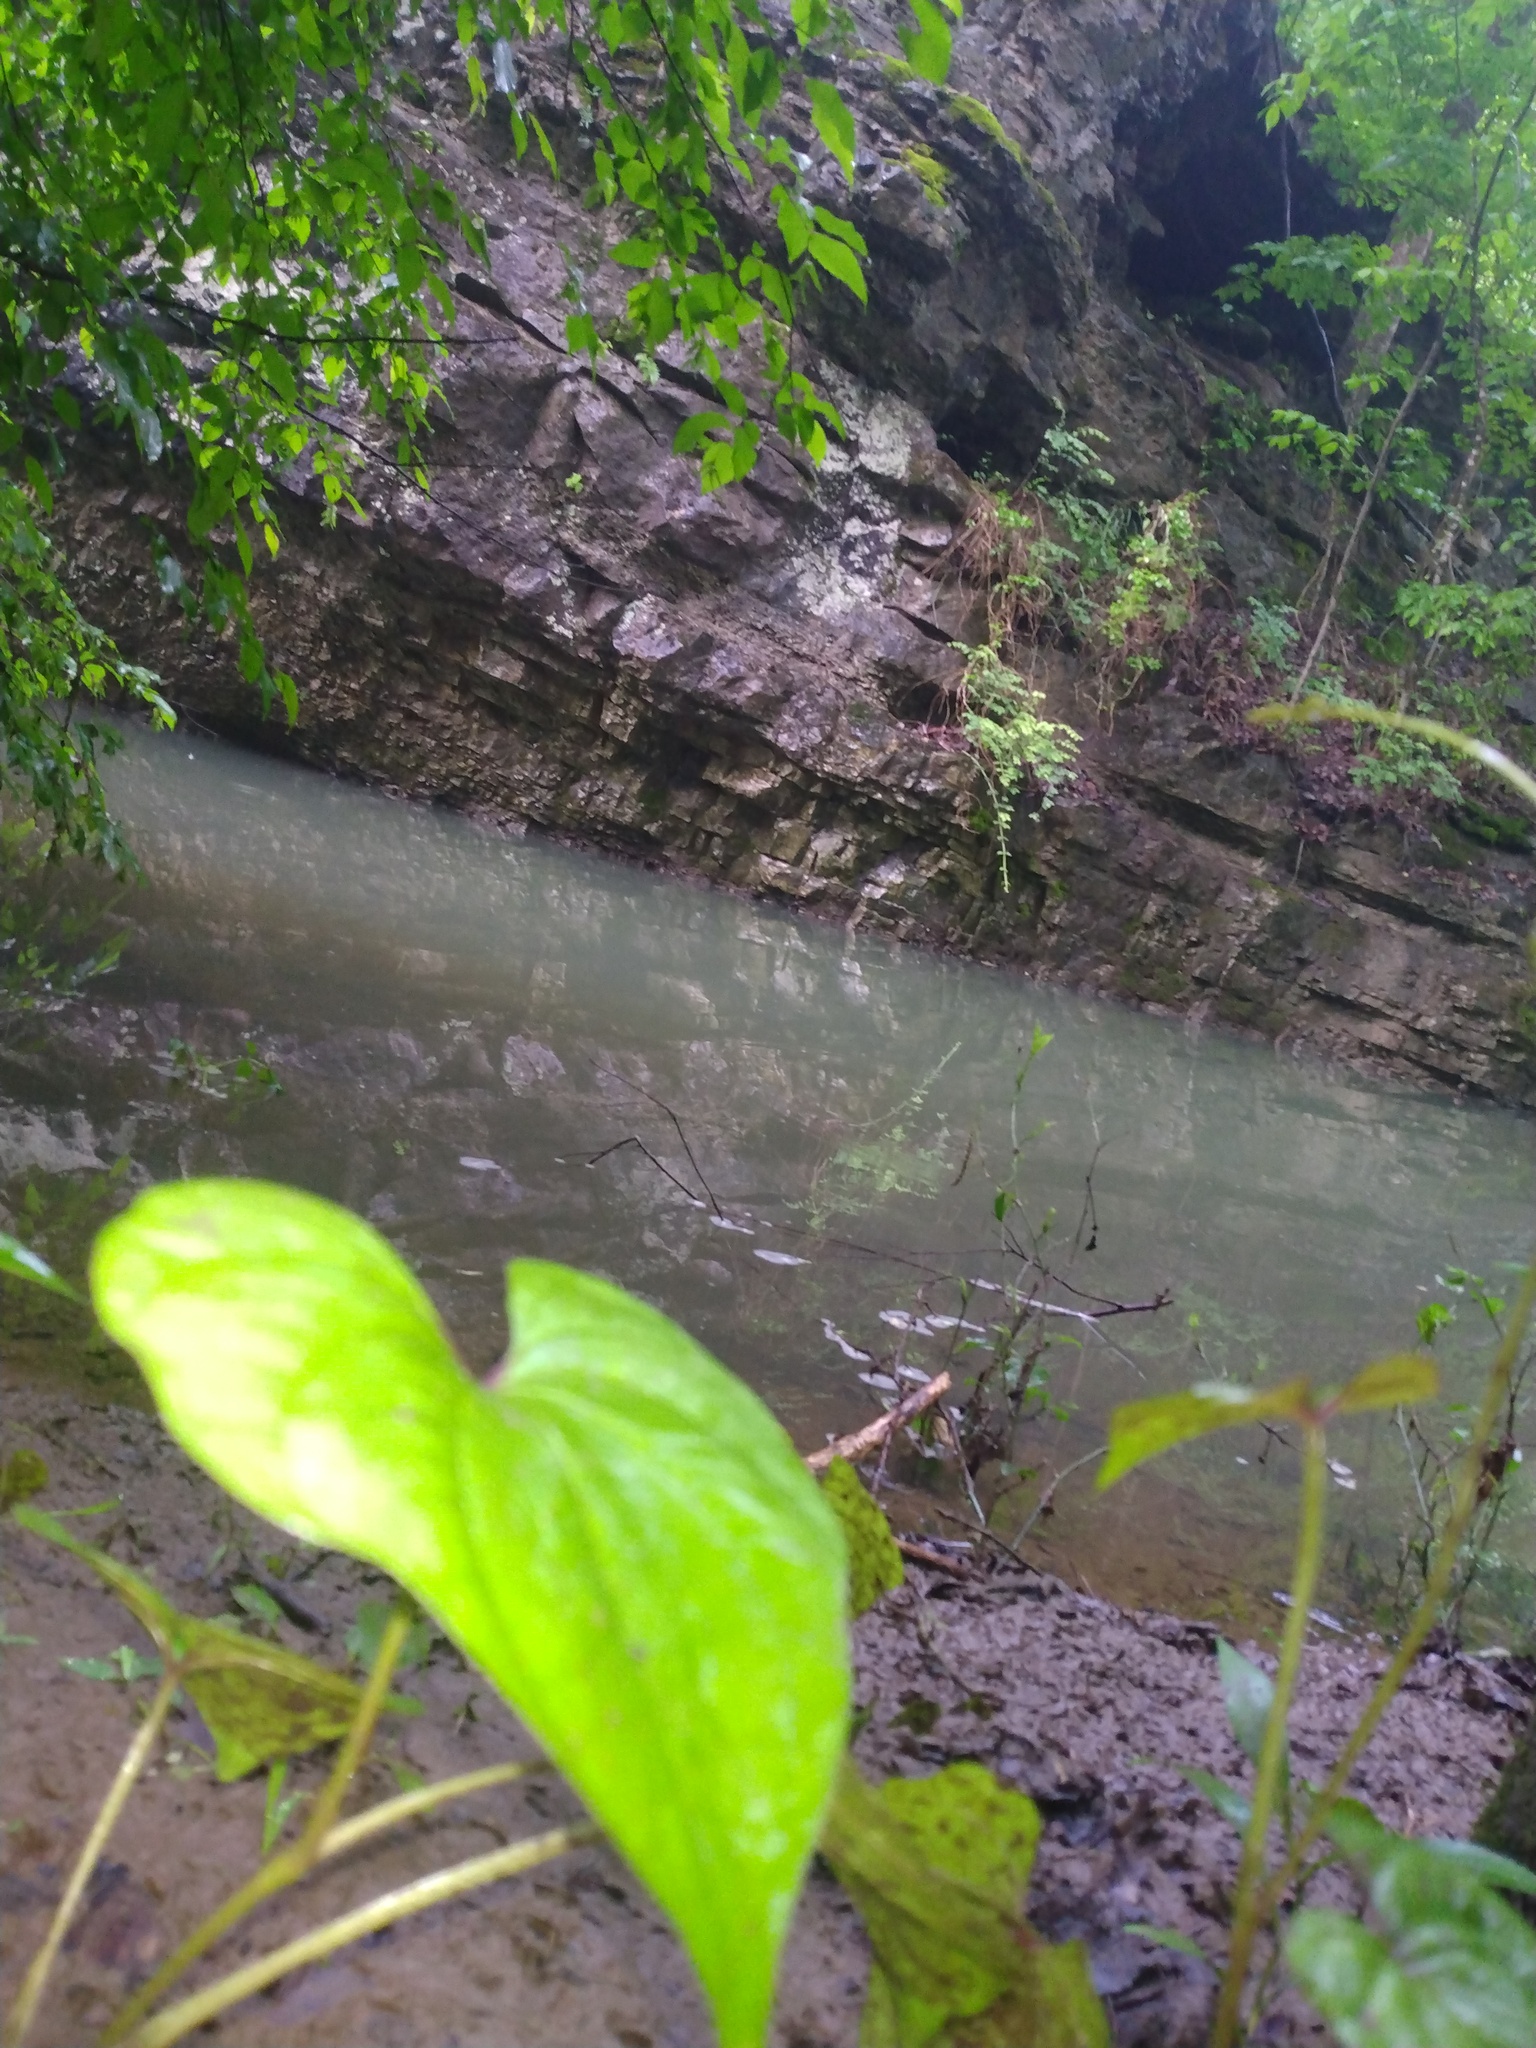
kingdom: Plantae
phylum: Tracheophyta
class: Magnoliopsida
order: Piperales
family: Saururaceae
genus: Saururus
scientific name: Saururus cernuus
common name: Lizard's-tail
